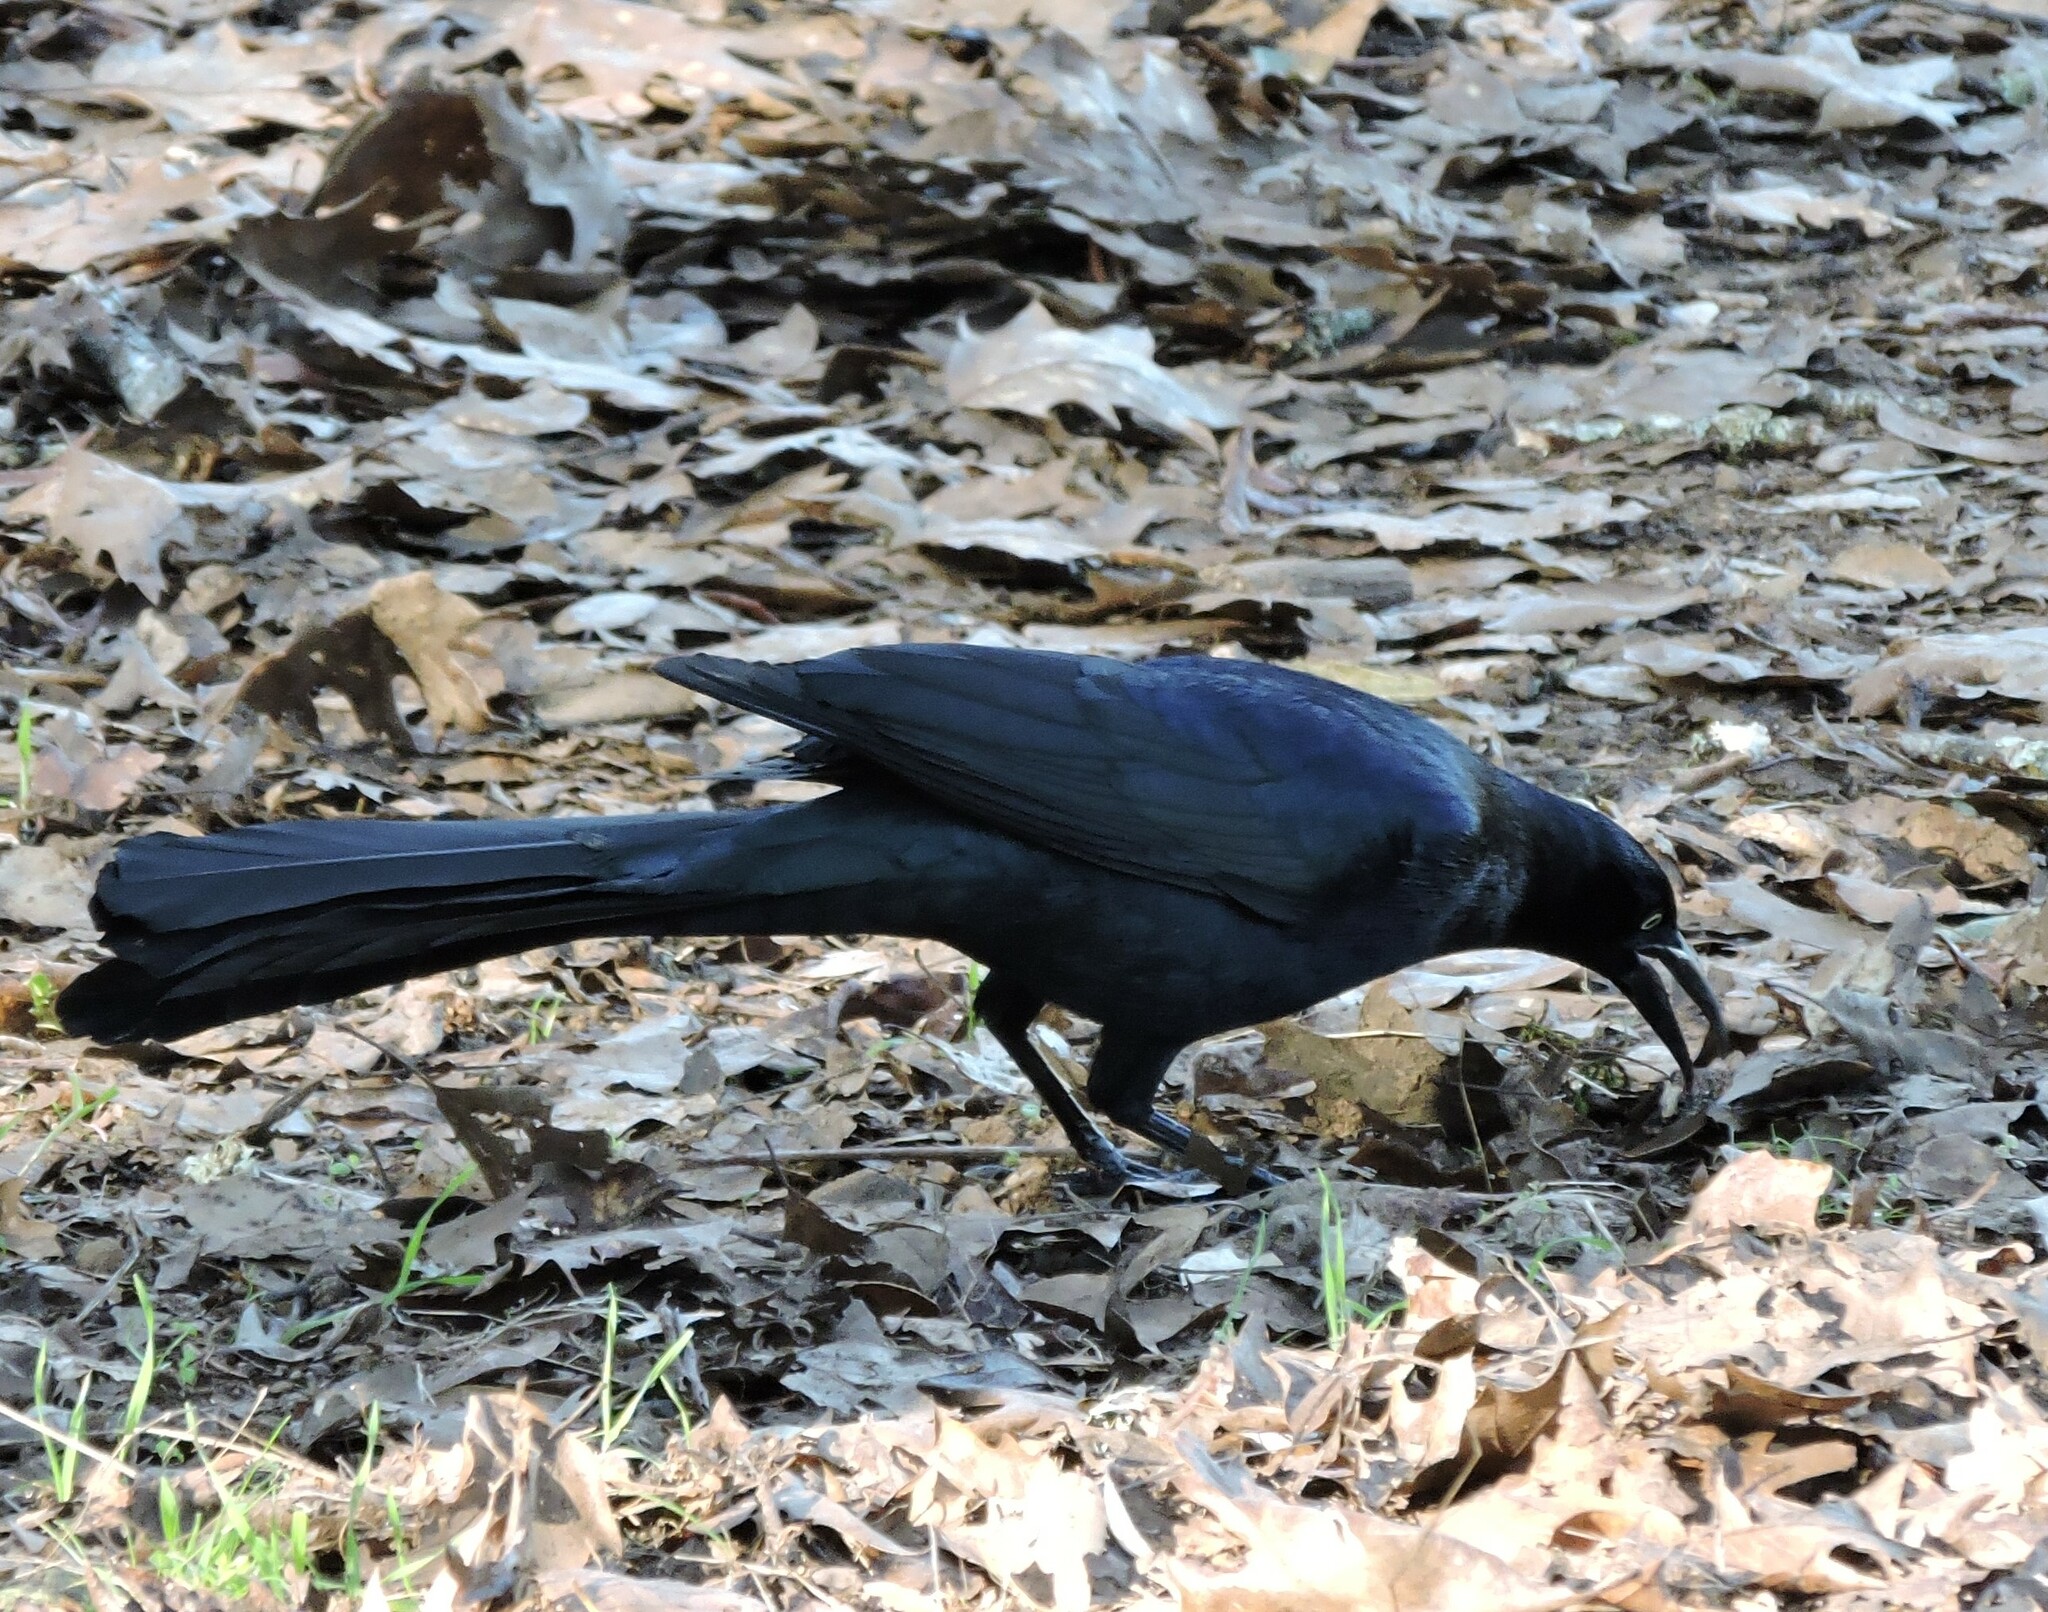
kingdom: Animalia
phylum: Chordata
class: Aves
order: Passeriformes
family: Icteridae
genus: Quiscalus
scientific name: Quiscalus mexicanus
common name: Great-tailed grackle
